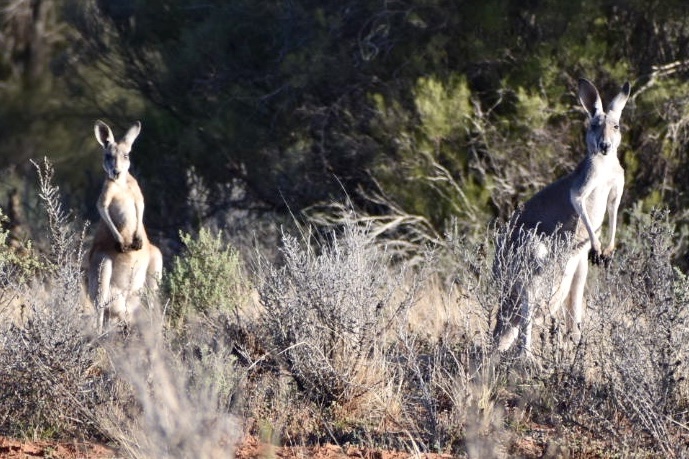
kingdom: Animalia
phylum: Chordata
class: Mammalia
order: Diprotodontia
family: Macropodidae
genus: Macropus
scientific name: Macropus rufus
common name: Red kangaroo
